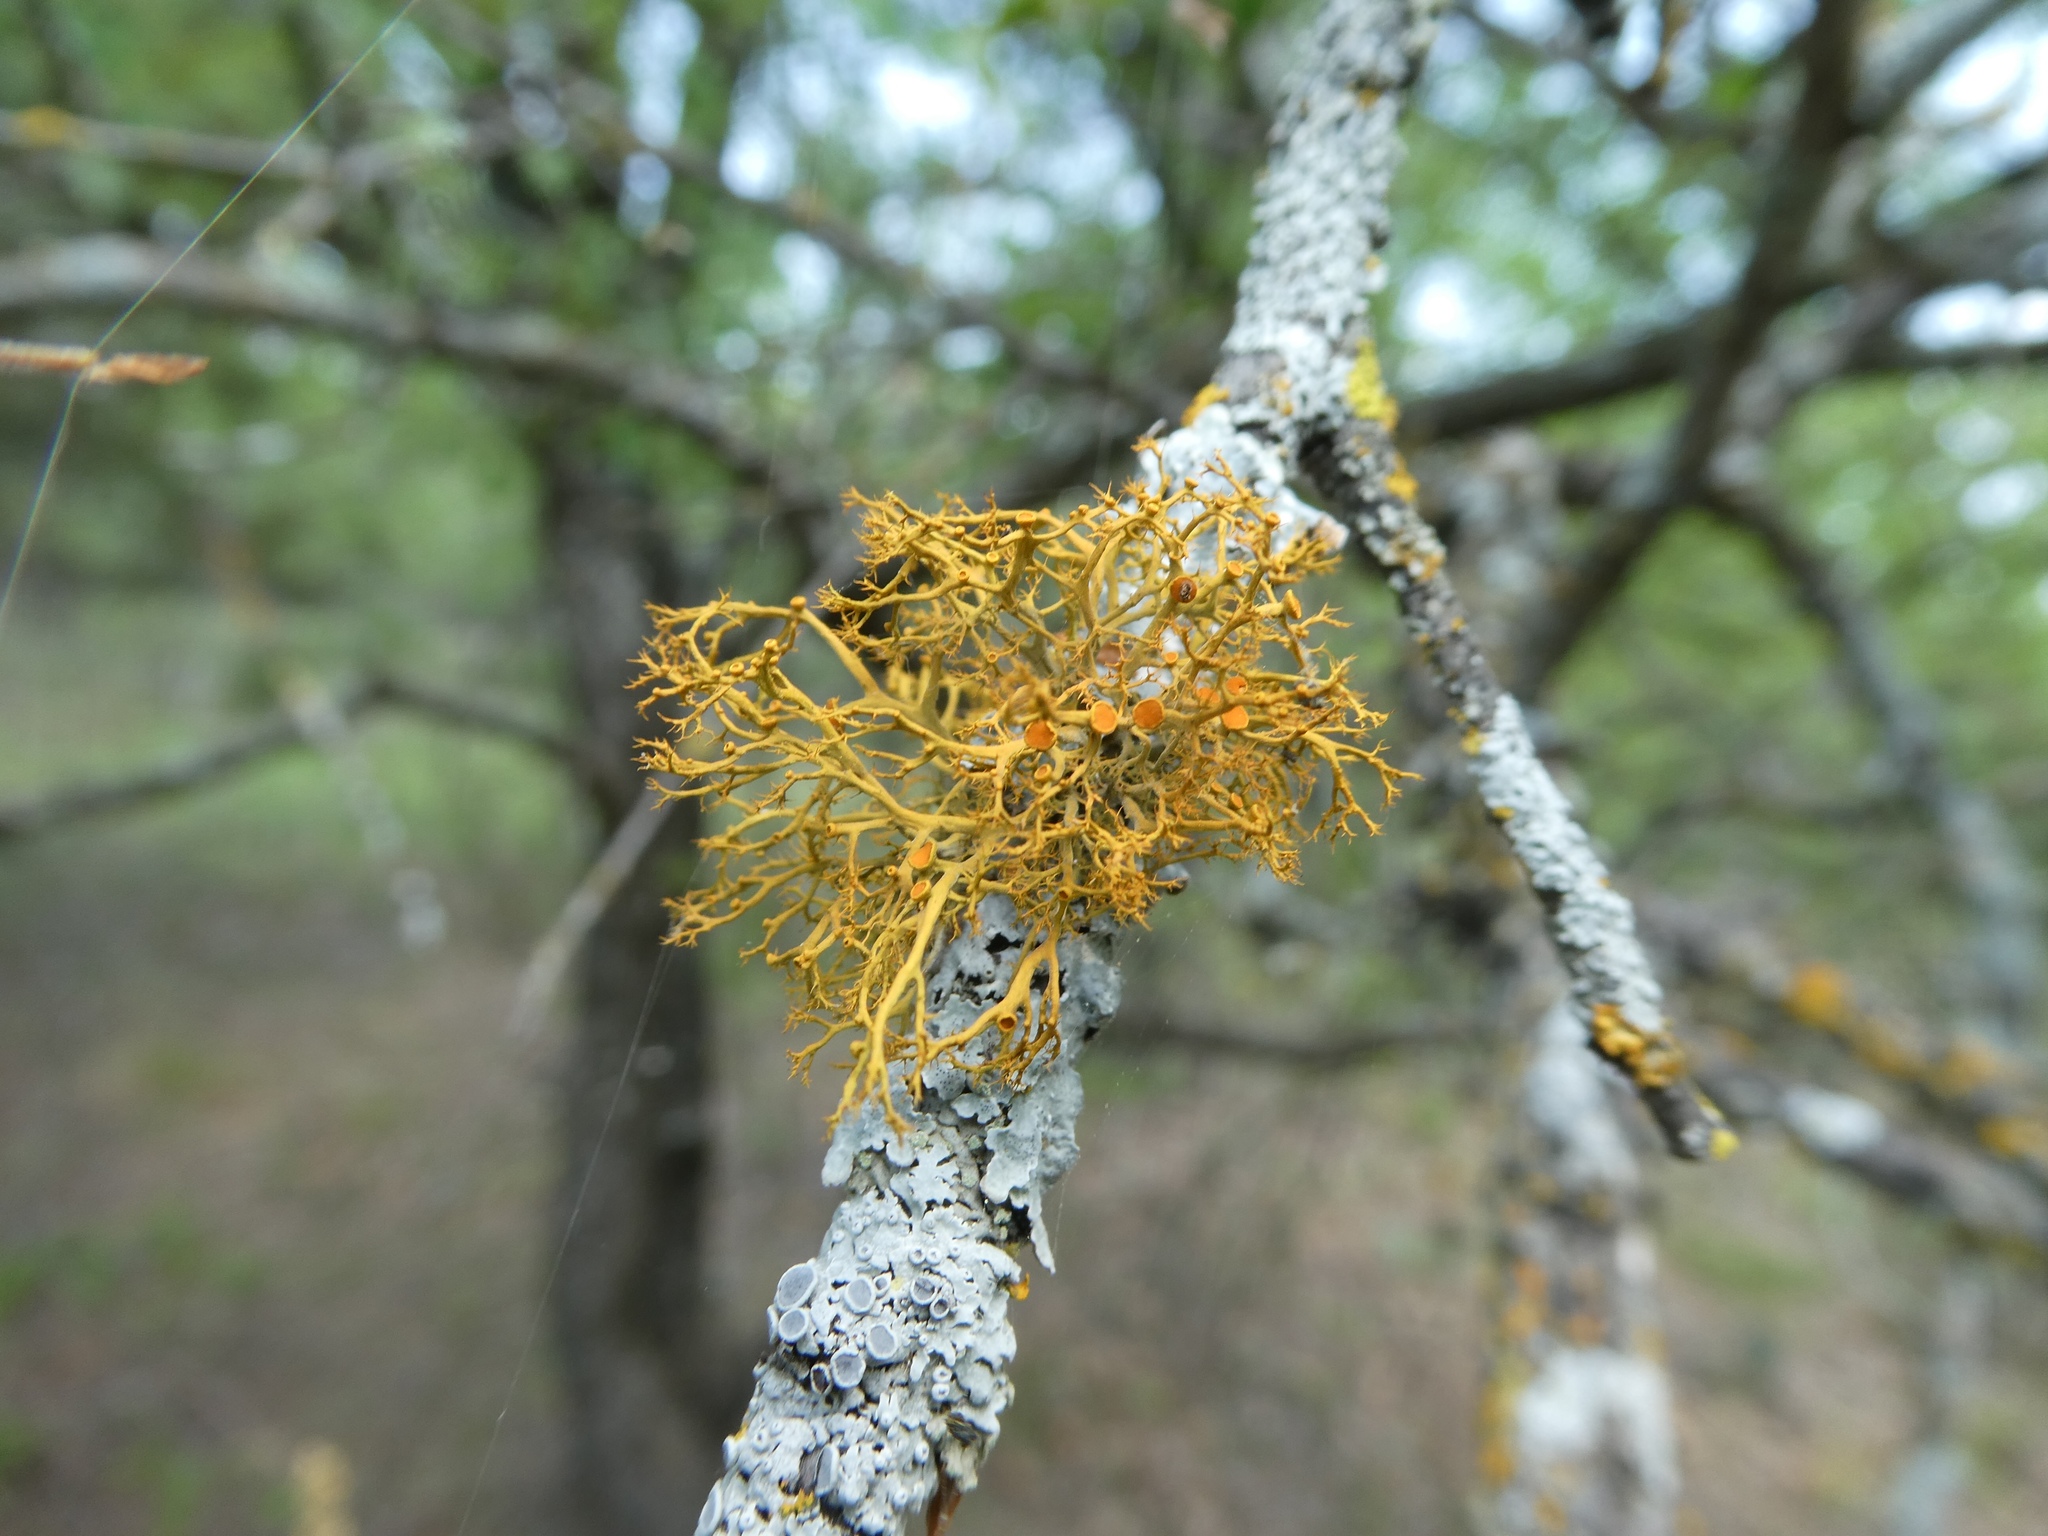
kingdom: Fungi
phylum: Ascomycota
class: Lecanoromycetes
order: Teloschistales
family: Teloschistaceae
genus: Teloschistes
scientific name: Teloschistes exilis
